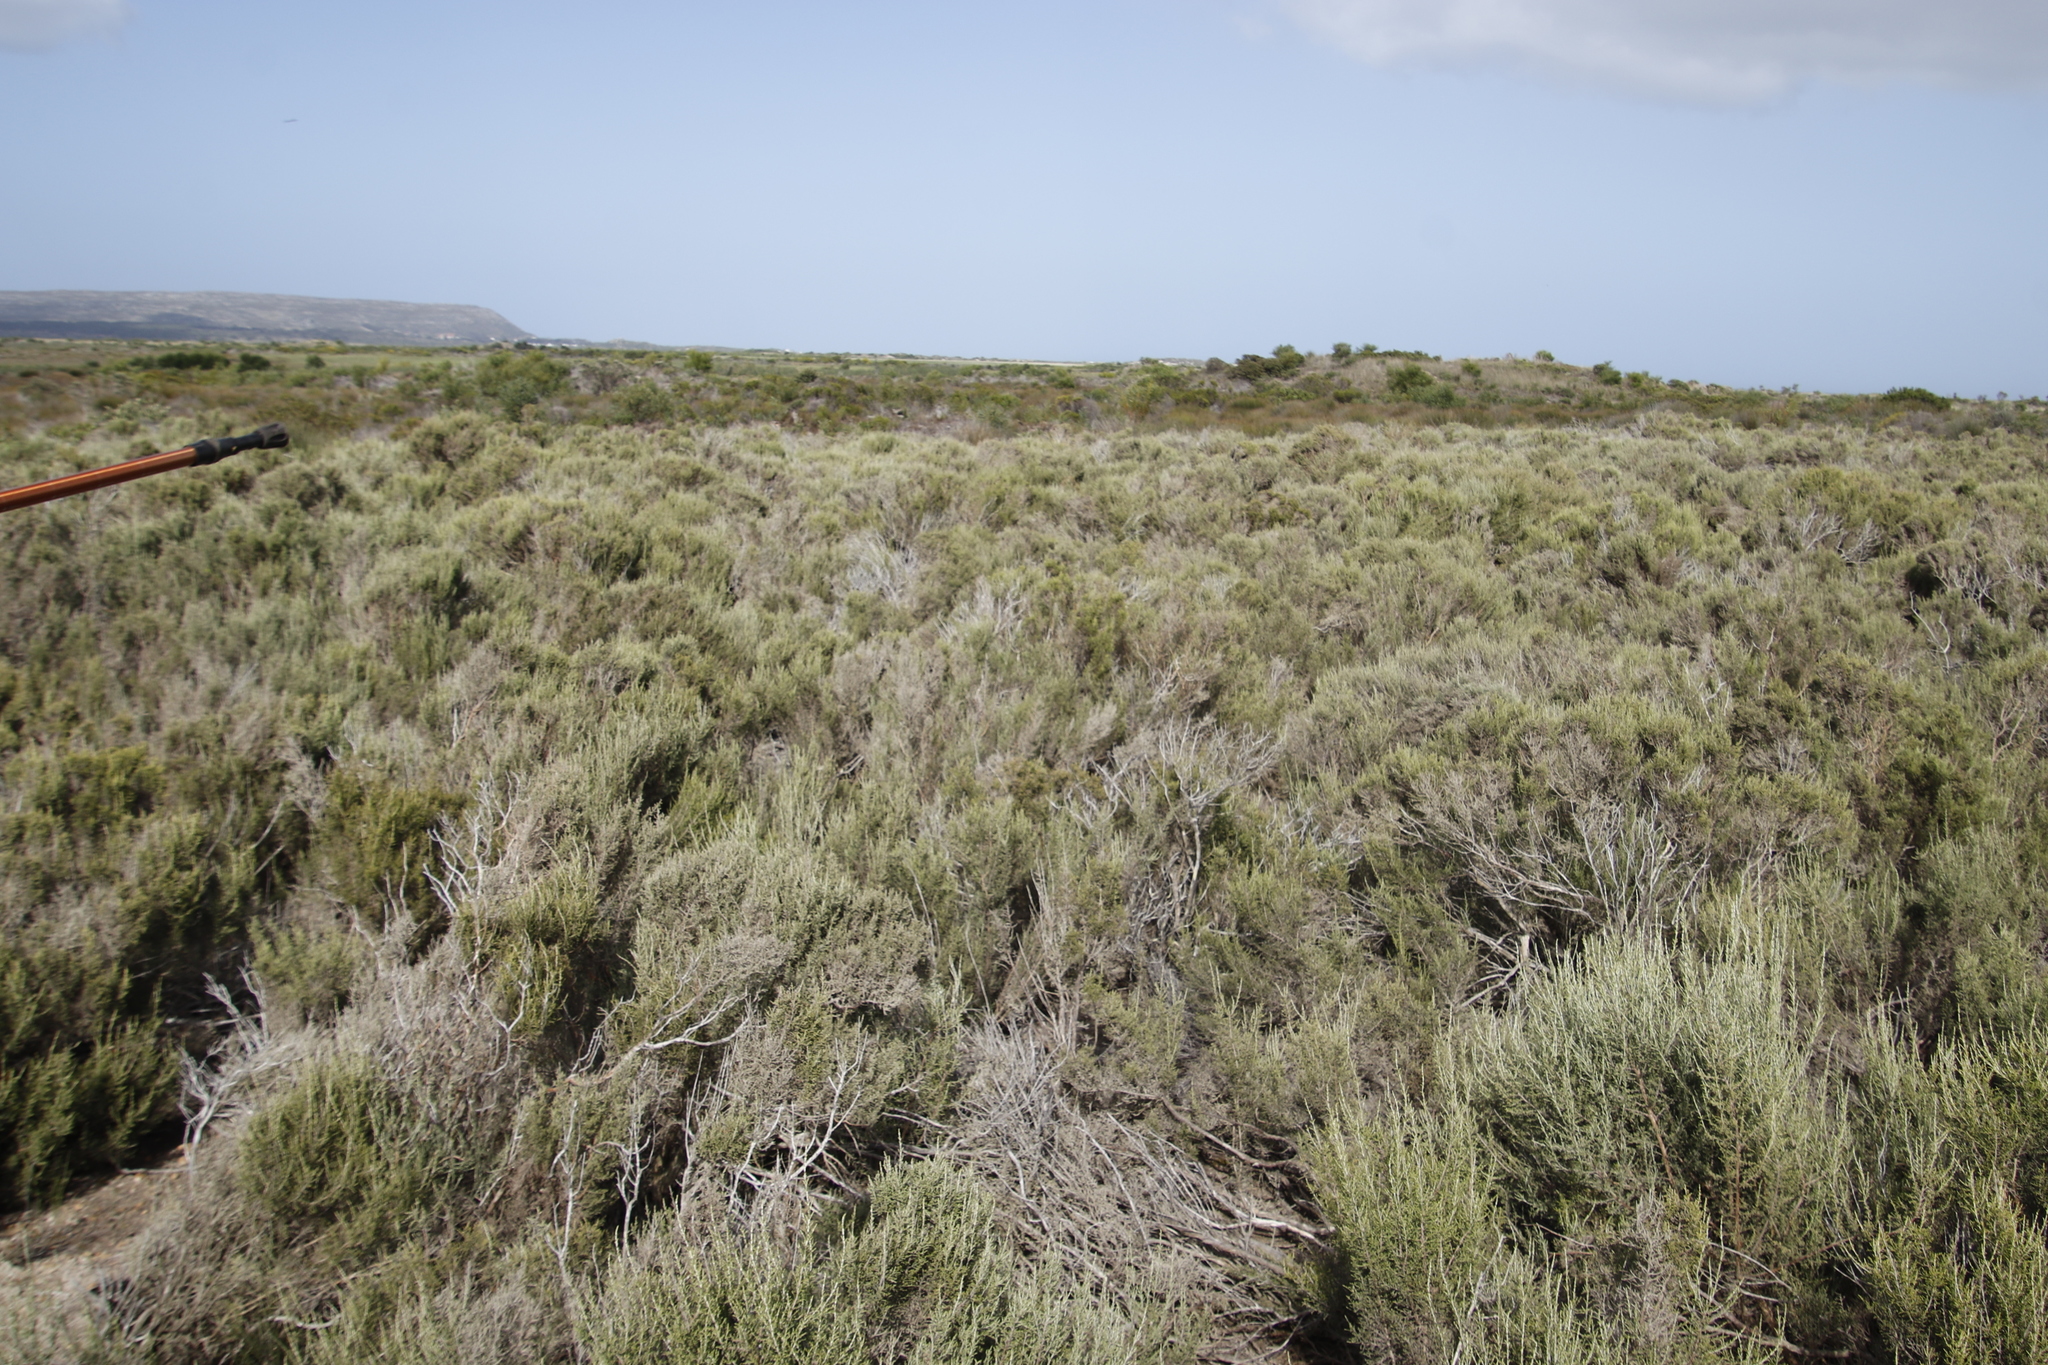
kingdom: Plantae
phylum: Tracheophyta
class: Magnoliopsida
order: Asterales
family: Asteraceae
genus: Dicerothamnus
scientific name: Dicerothamnus rhinocerotis
